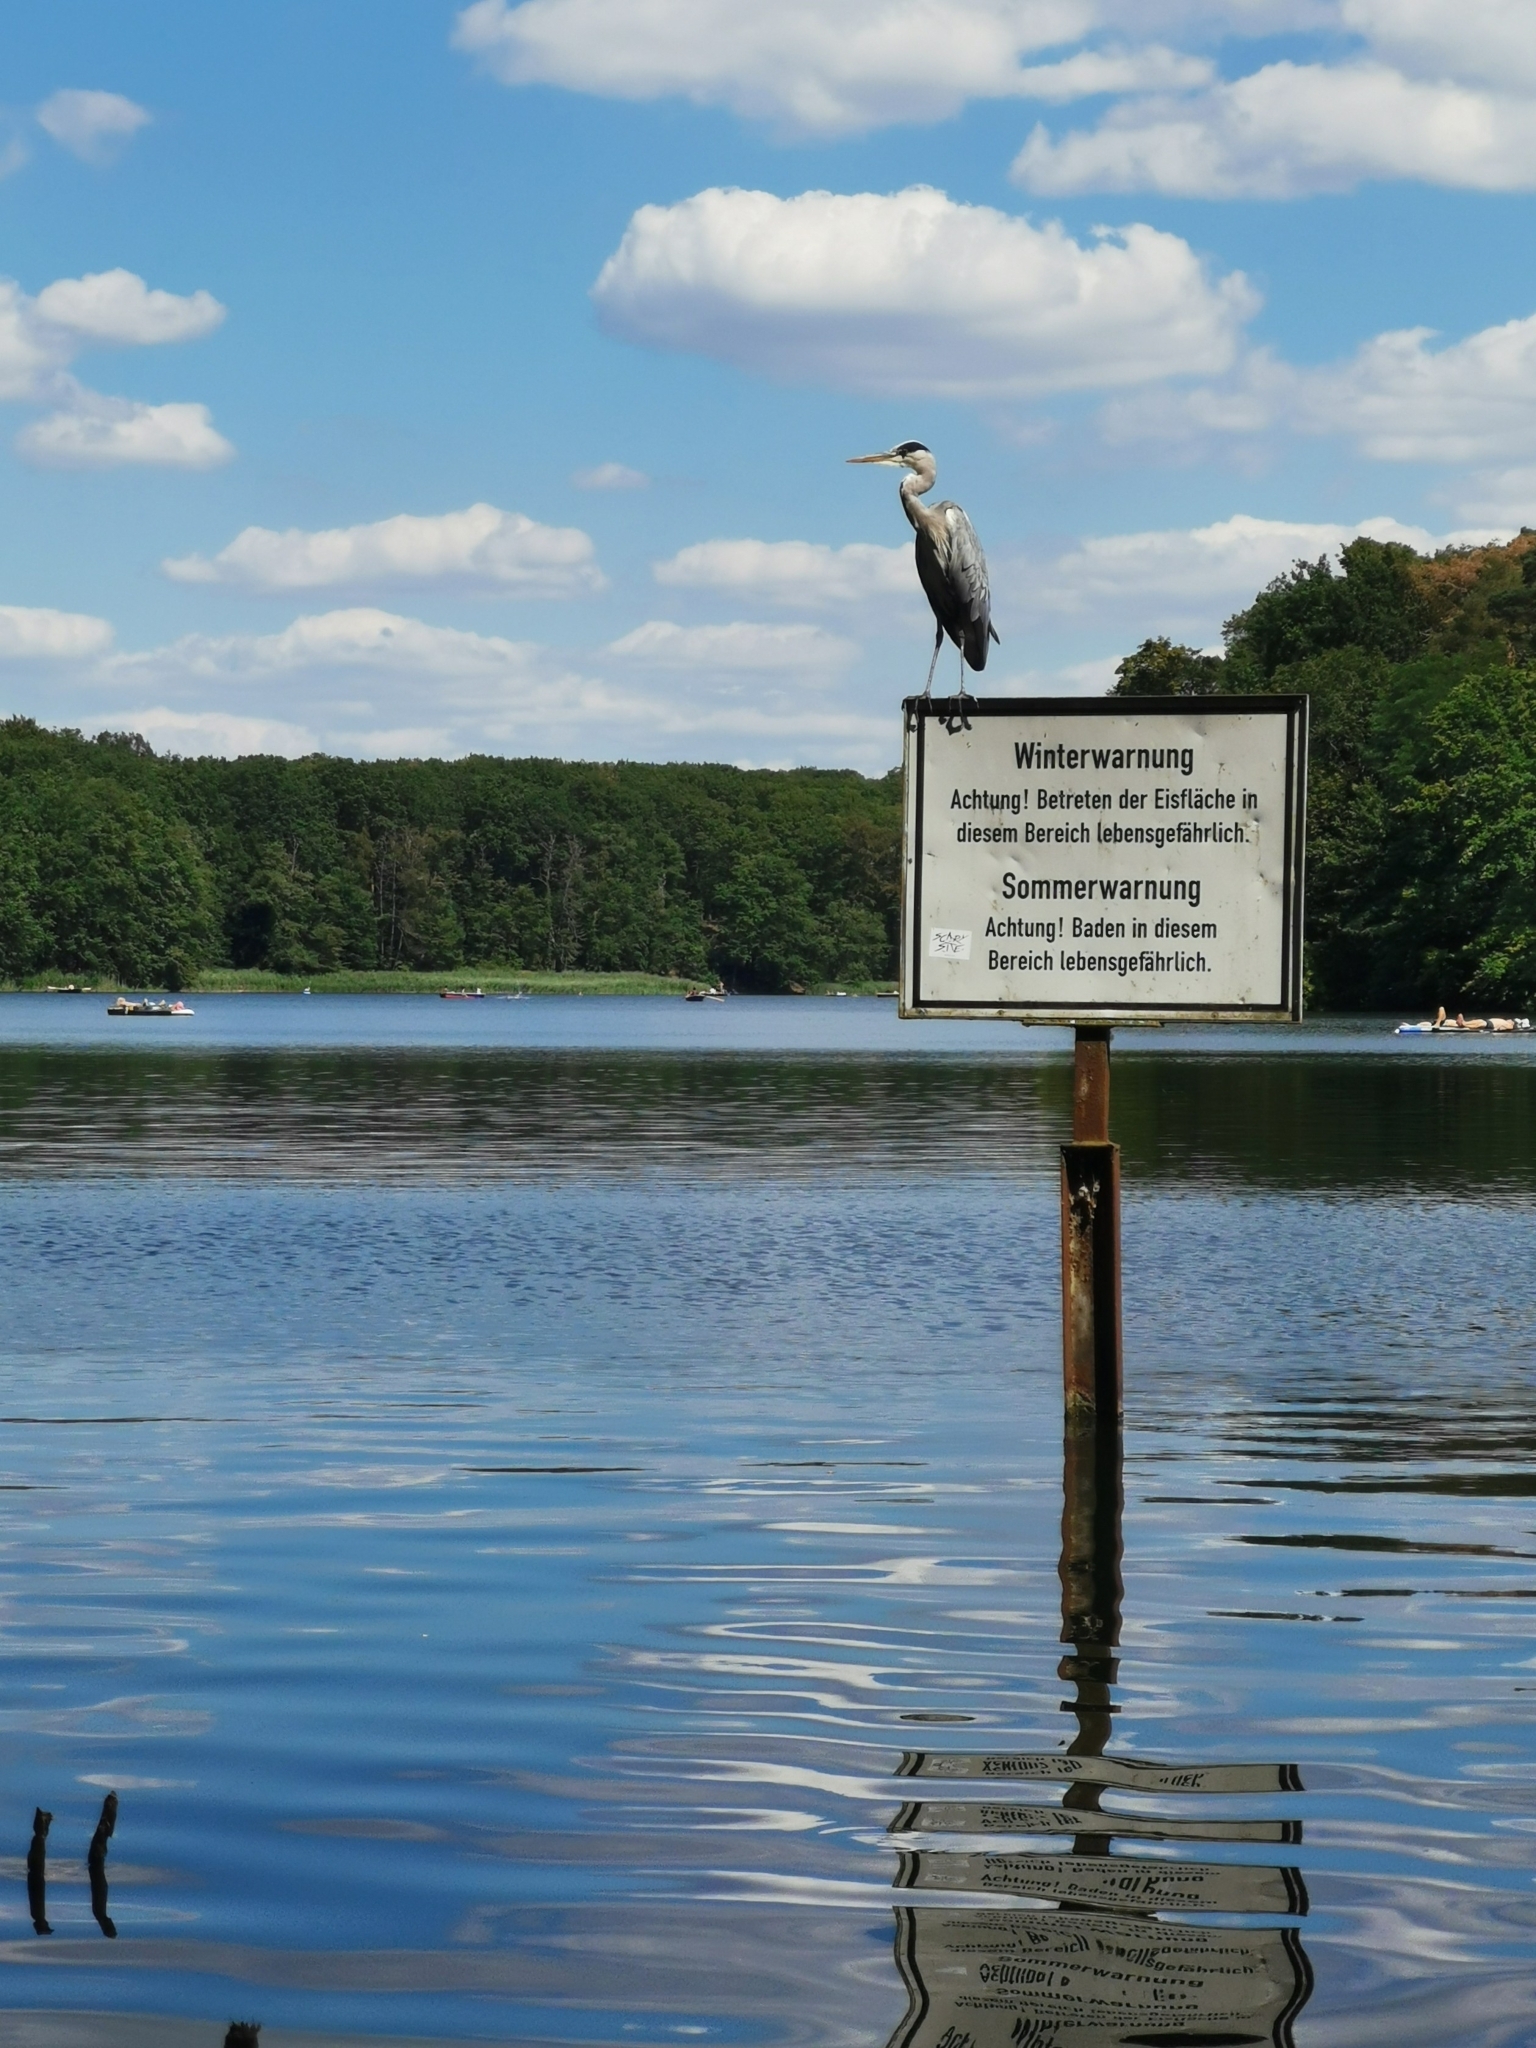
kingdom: Animalia
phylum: Chordata
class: Aves
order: Pelecaniformes
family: Ardeidae
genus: Ardea
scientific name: Ardea cinerea
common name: Grey heron
